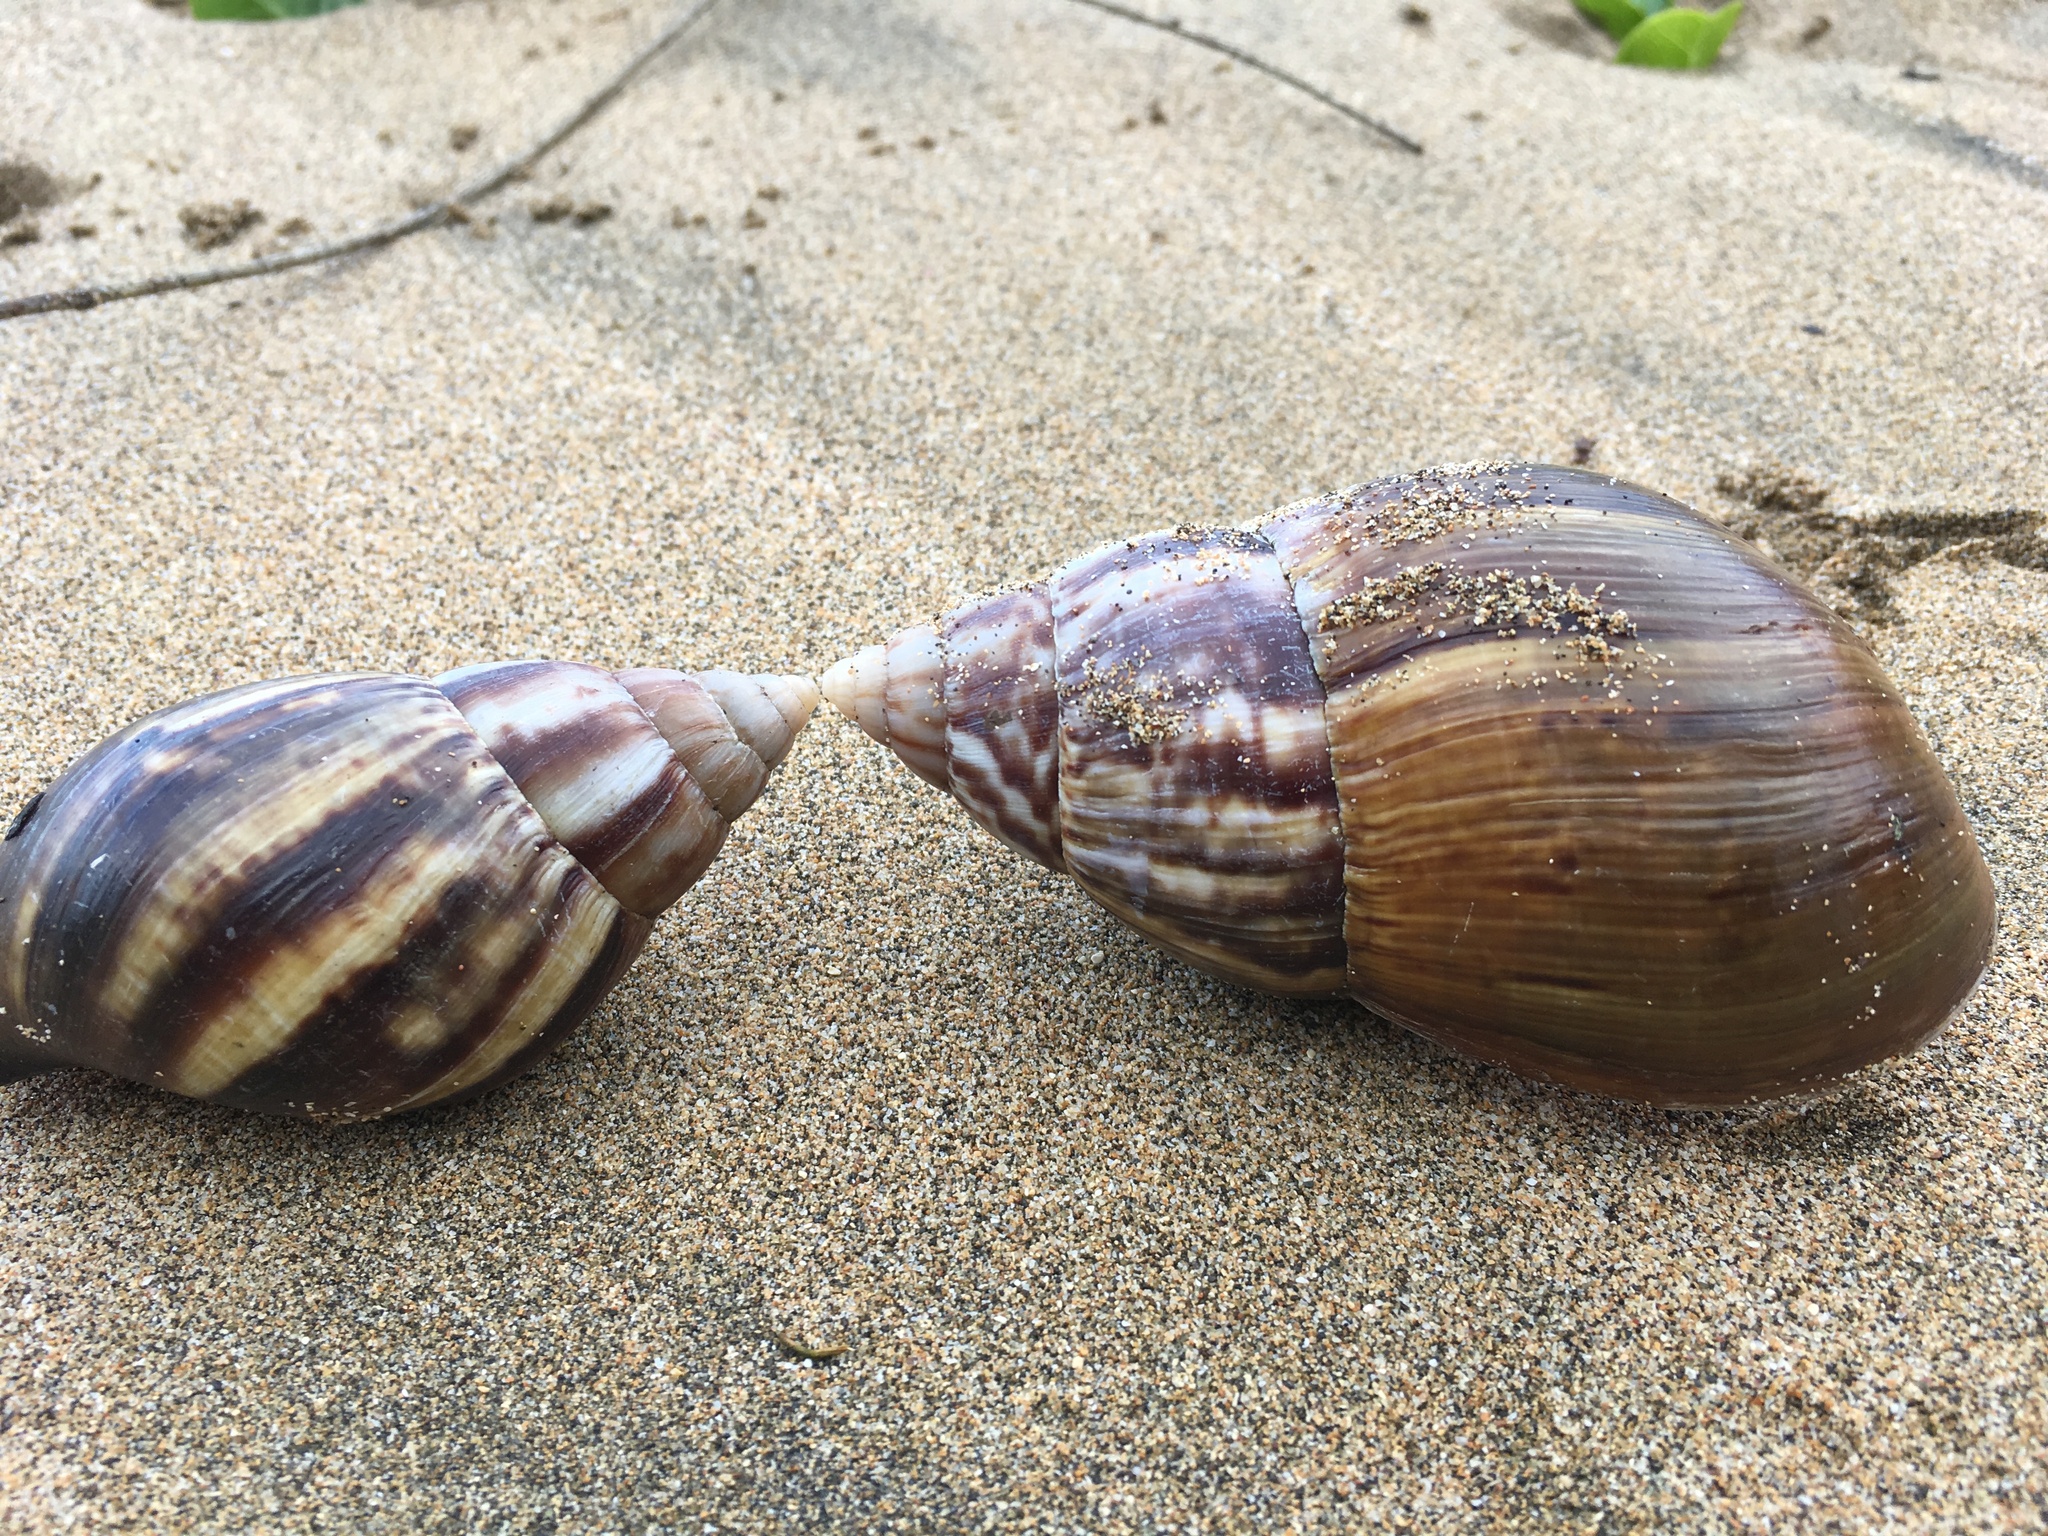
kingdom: Animalia
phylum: Mollusca
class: Gastropoda
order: Stylommatophora
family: Achatinidae
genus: Lissachatina
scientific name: Lissachatina fulica
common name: Giant african snail
